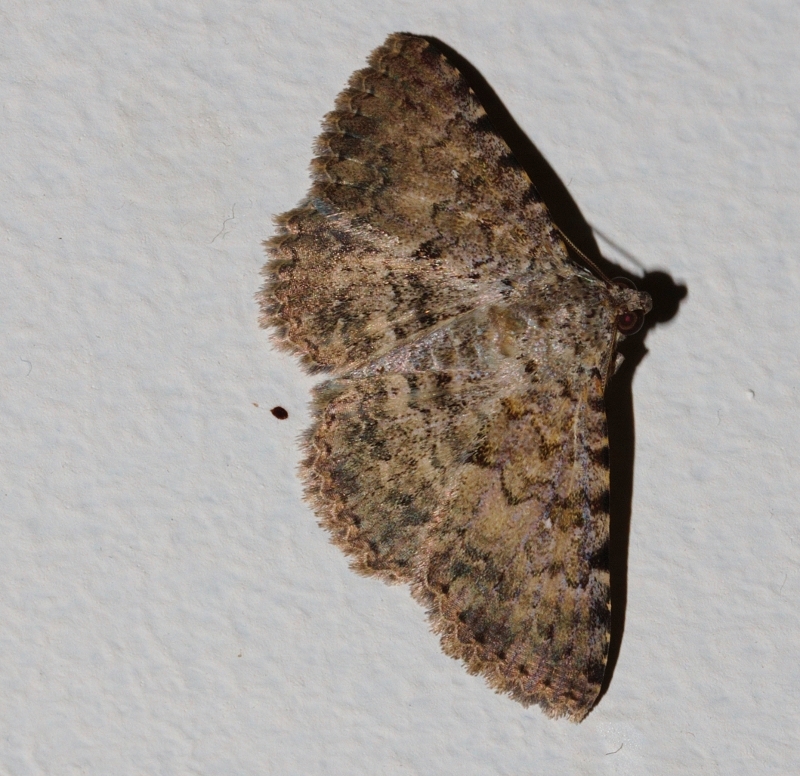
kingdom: Animalia
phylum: Arthropoda
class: Insecta
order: Lepidoptera
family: Erebidae
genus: Polydesma
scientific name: Polydesma sagulata
